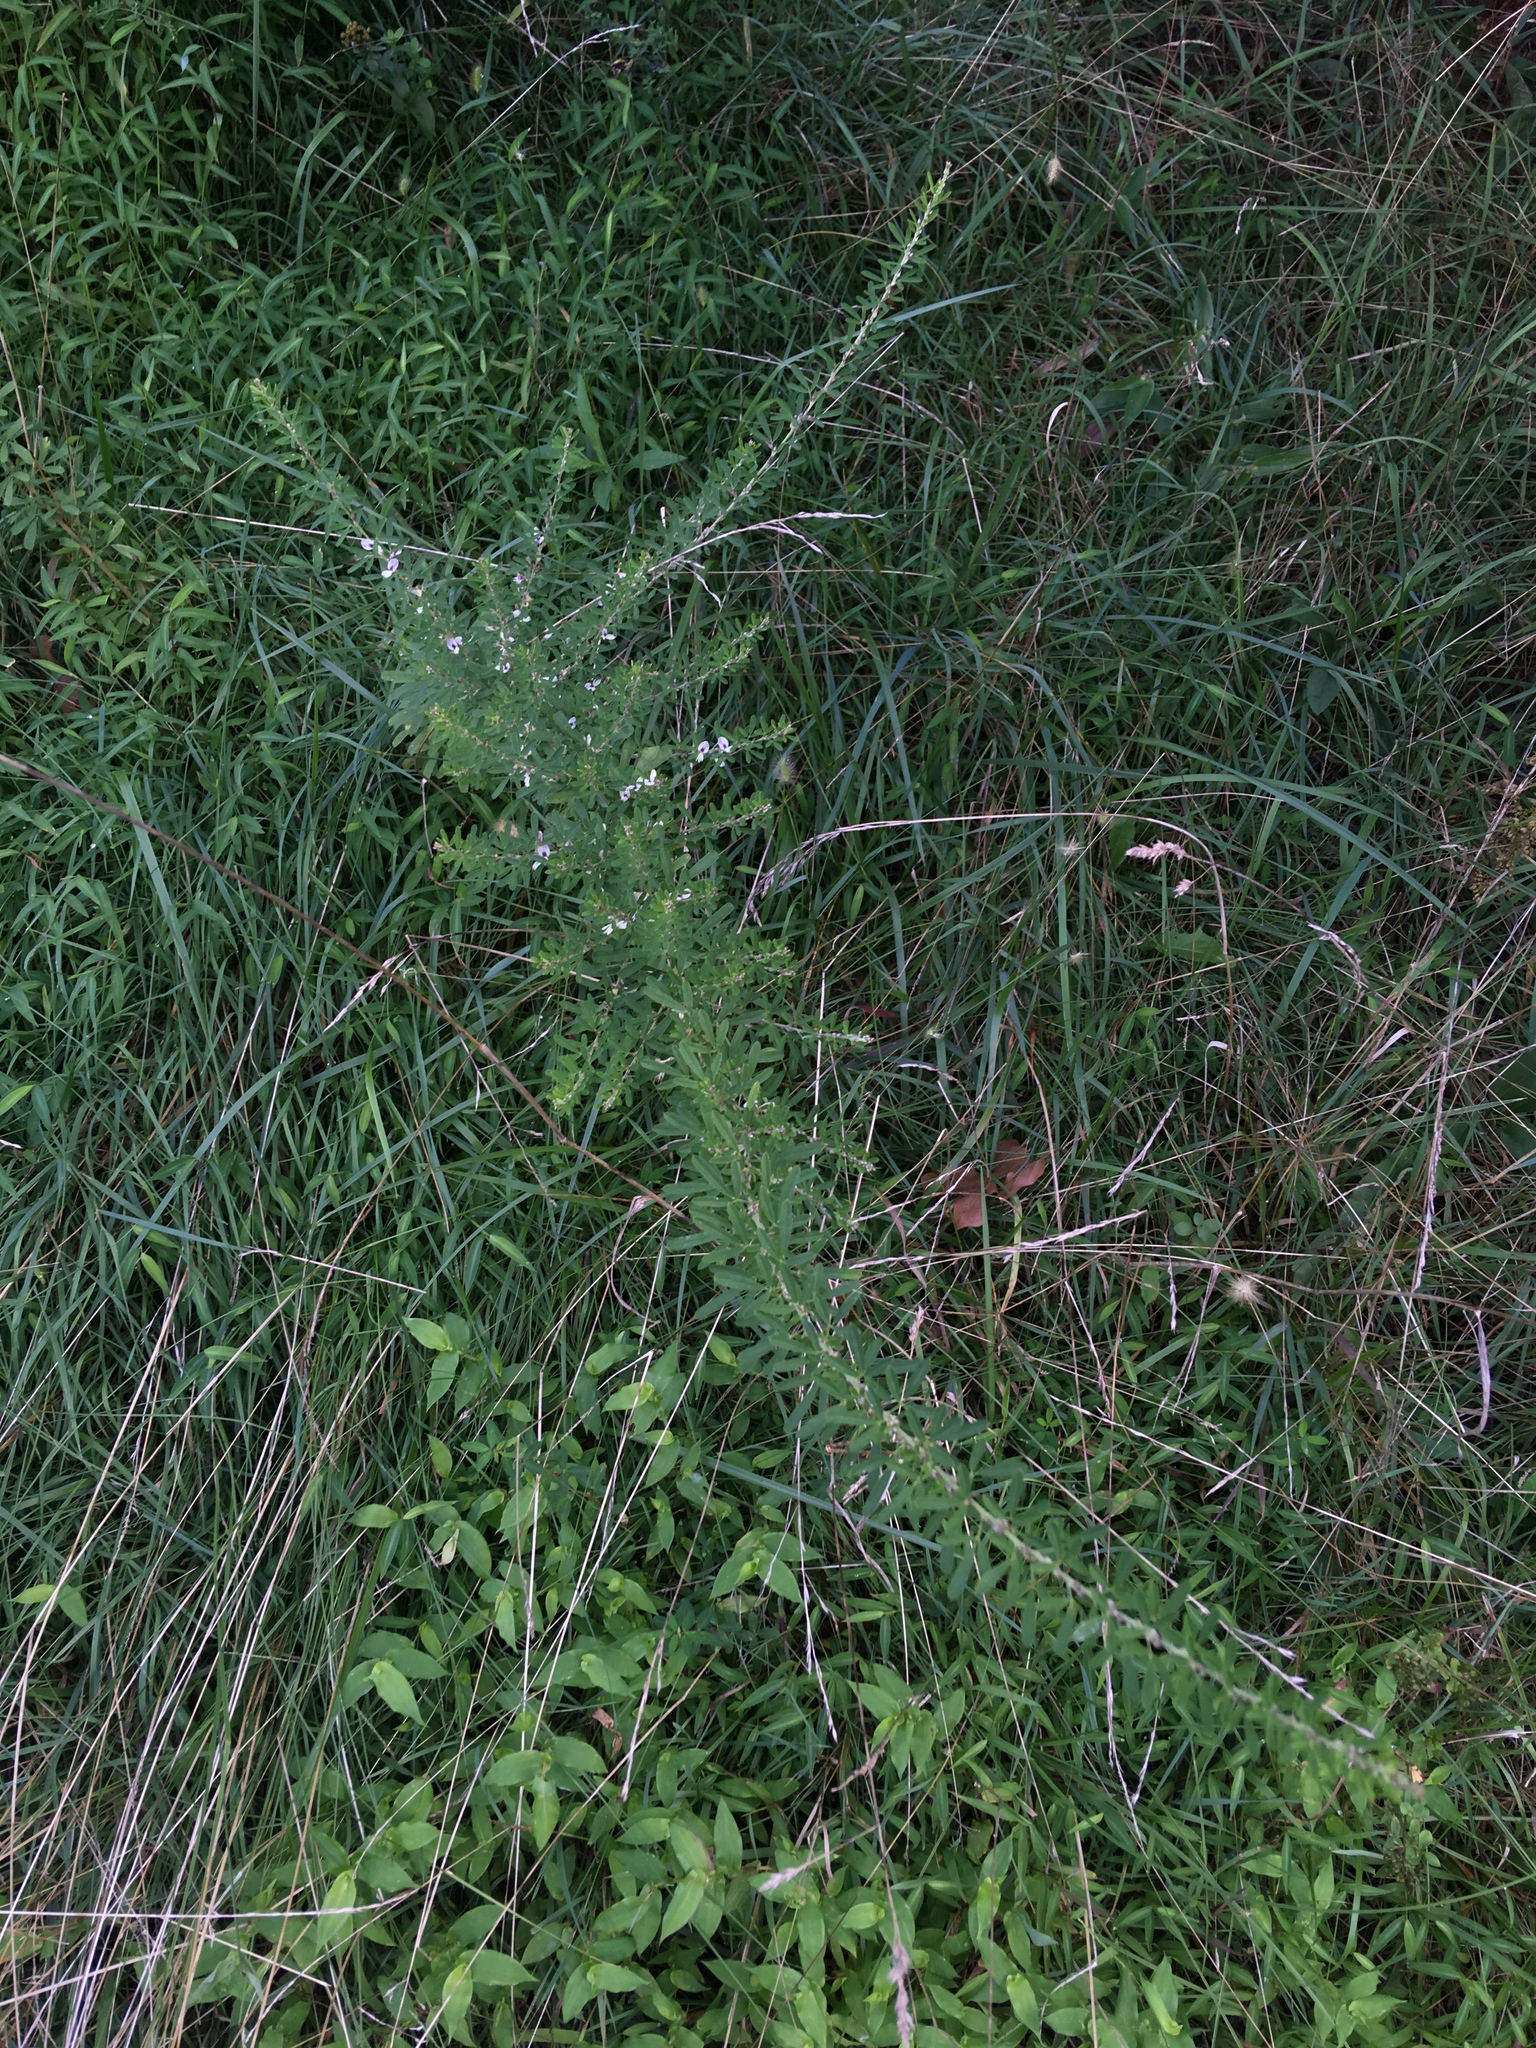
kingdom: Plantae
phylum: Tracheophyta
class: Magnoliopsida
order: Fabales
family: Fabaceae
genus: Lespedeza
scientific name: Lespedeza cuneata
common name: Chinese bush-clover
